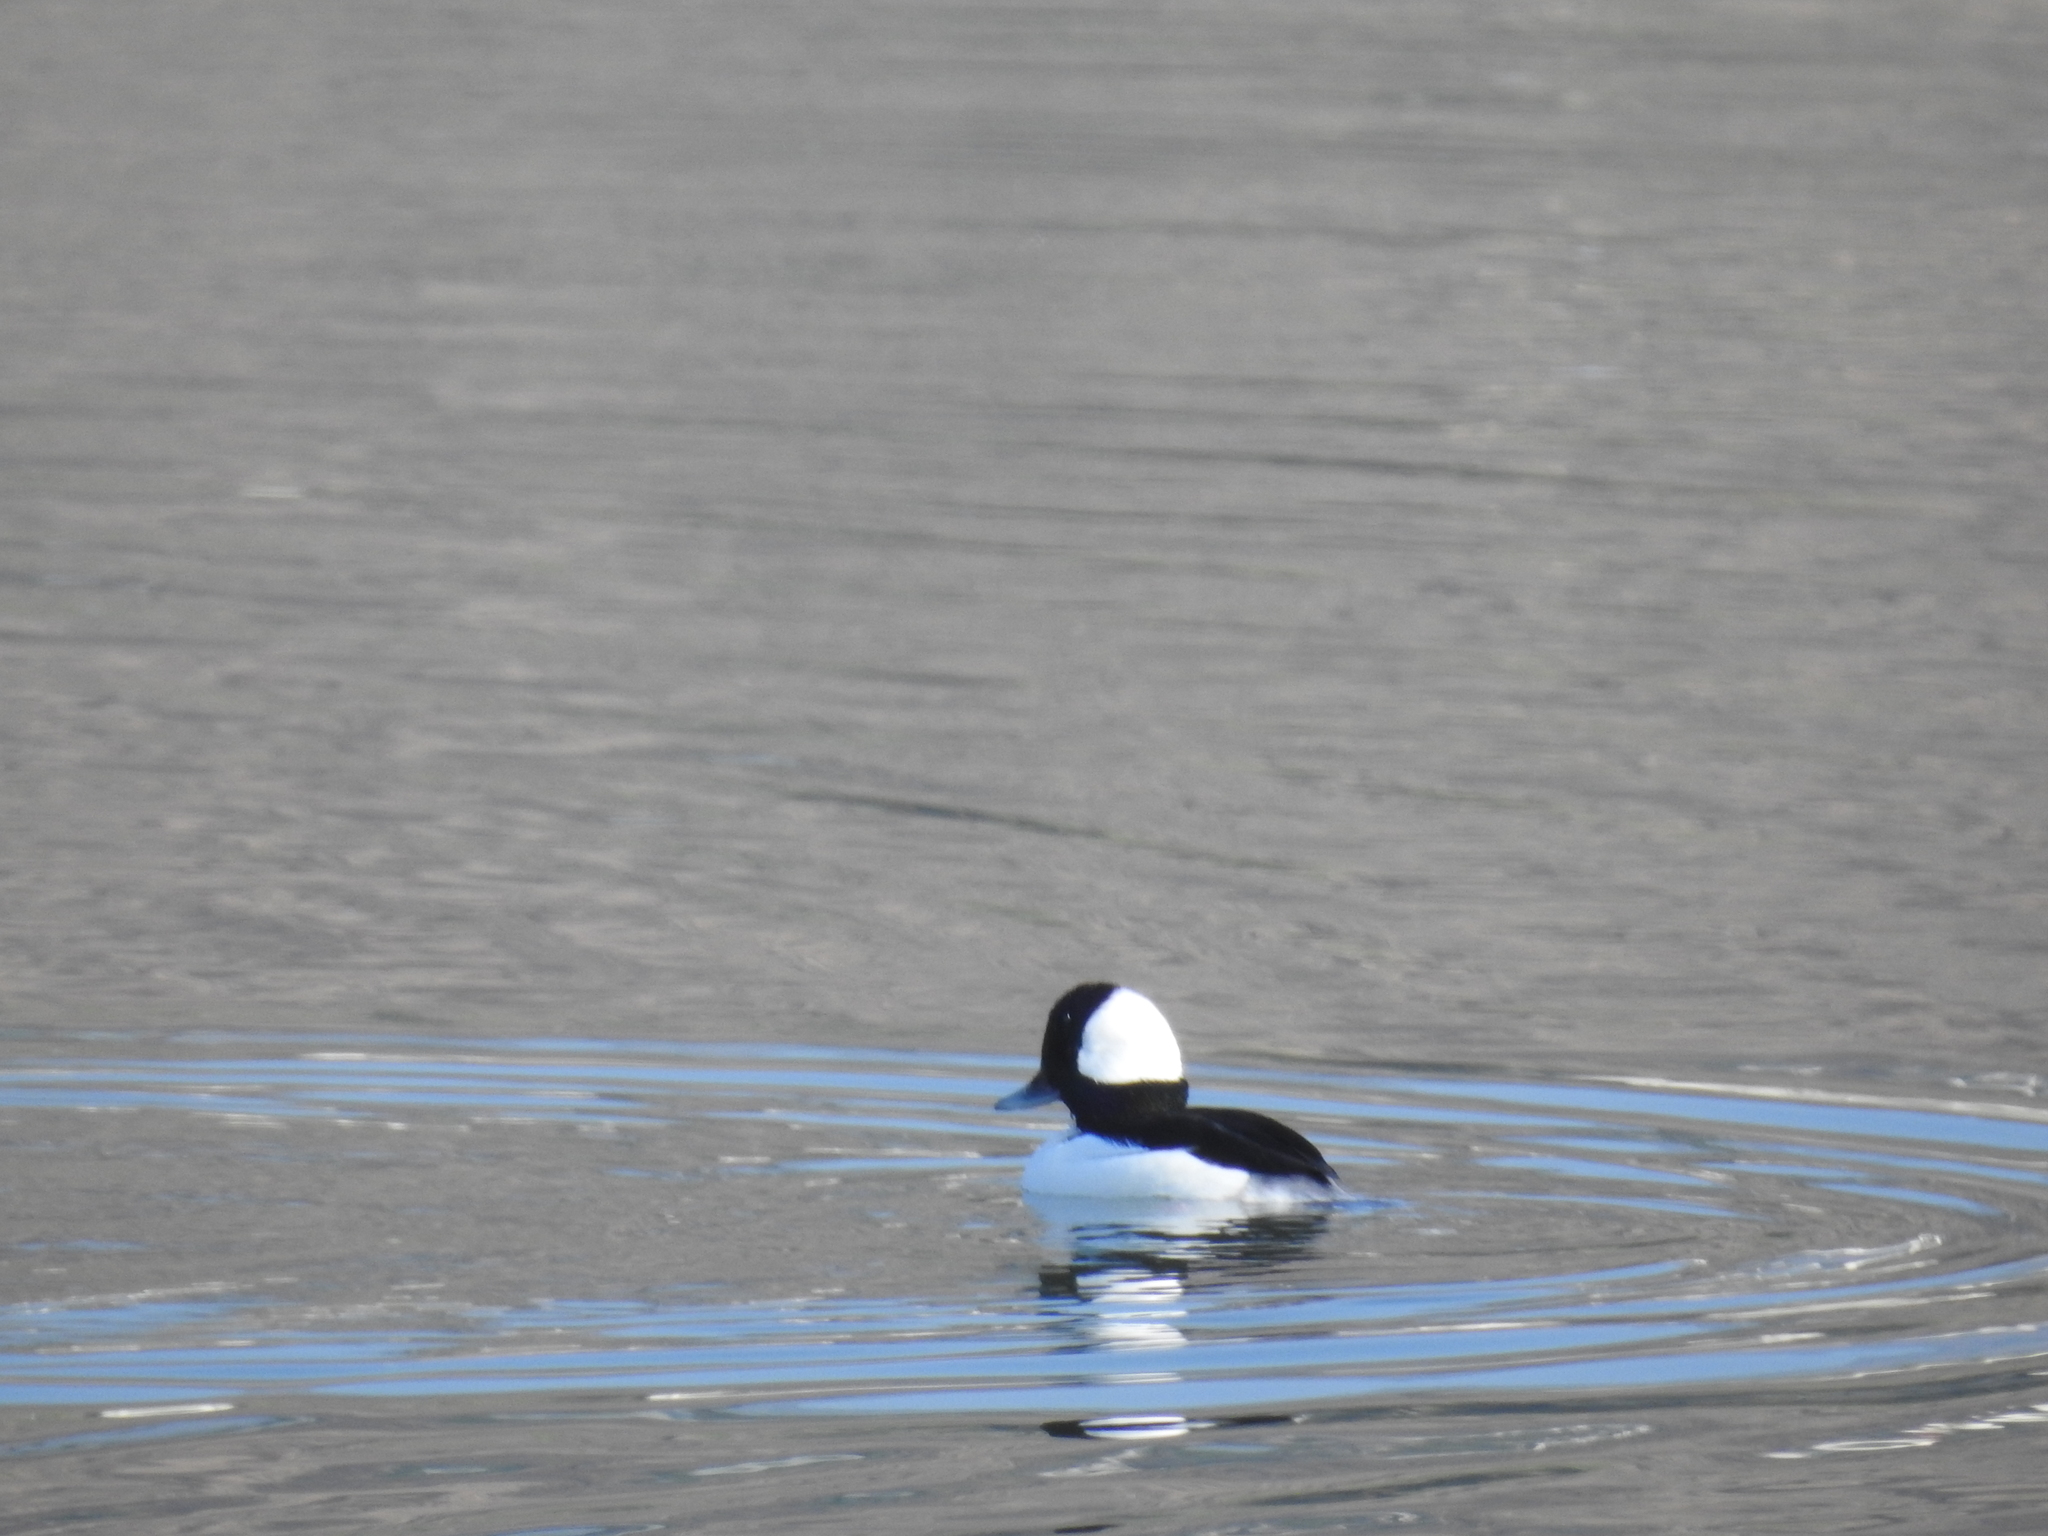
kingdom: Animalia
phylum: Chordata
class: Aves
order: Anseriformes
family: Anatidae
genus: Bucephala
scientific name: Bucephala albeola
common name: Bufflehead
